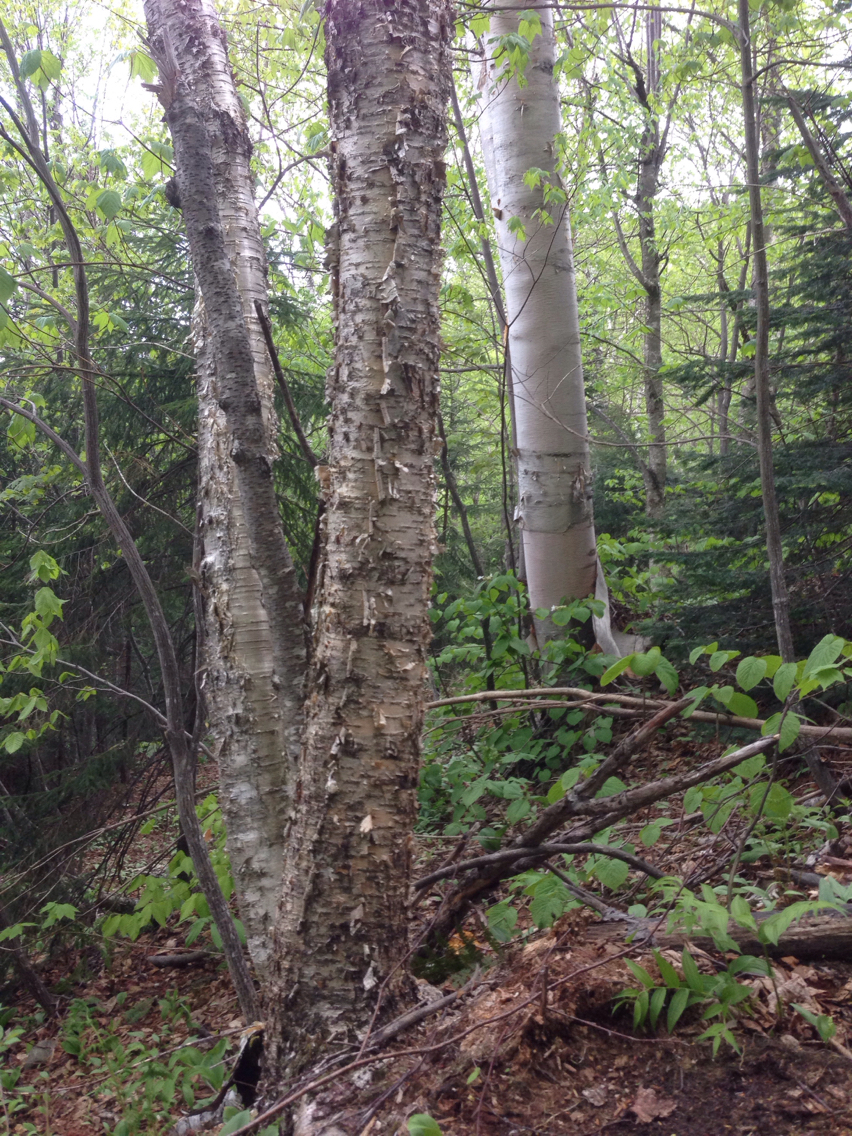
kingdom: Plantae
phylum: Tracheophyta
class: Magnoliopsida
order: Fagales
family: Betulaceae
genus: Betula
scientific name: Betula alleghaniensis
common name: Yellow birch
